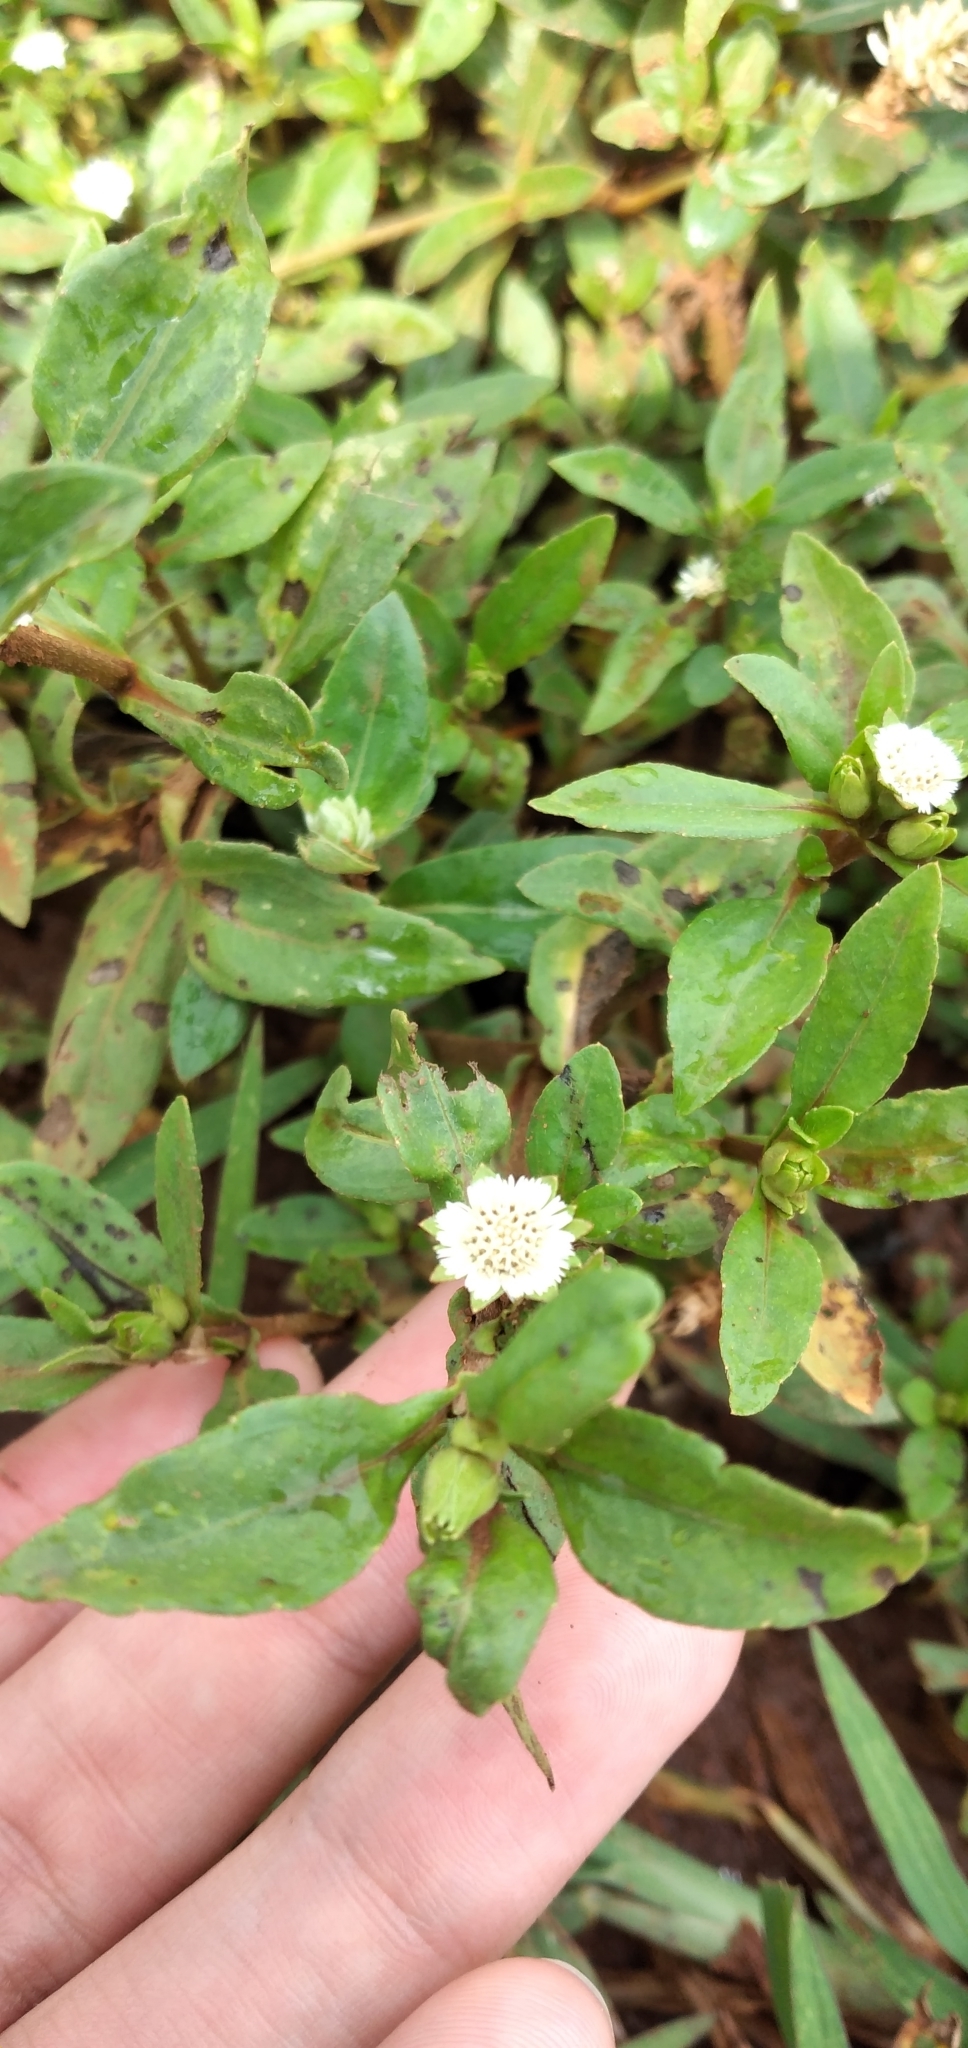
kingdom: Plantae
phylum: Tracheophyta
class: Magnoliopsida
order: Asterales
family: Asteraceae
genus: Eclipta
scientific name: Eclipta prostrata
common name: False daisy
